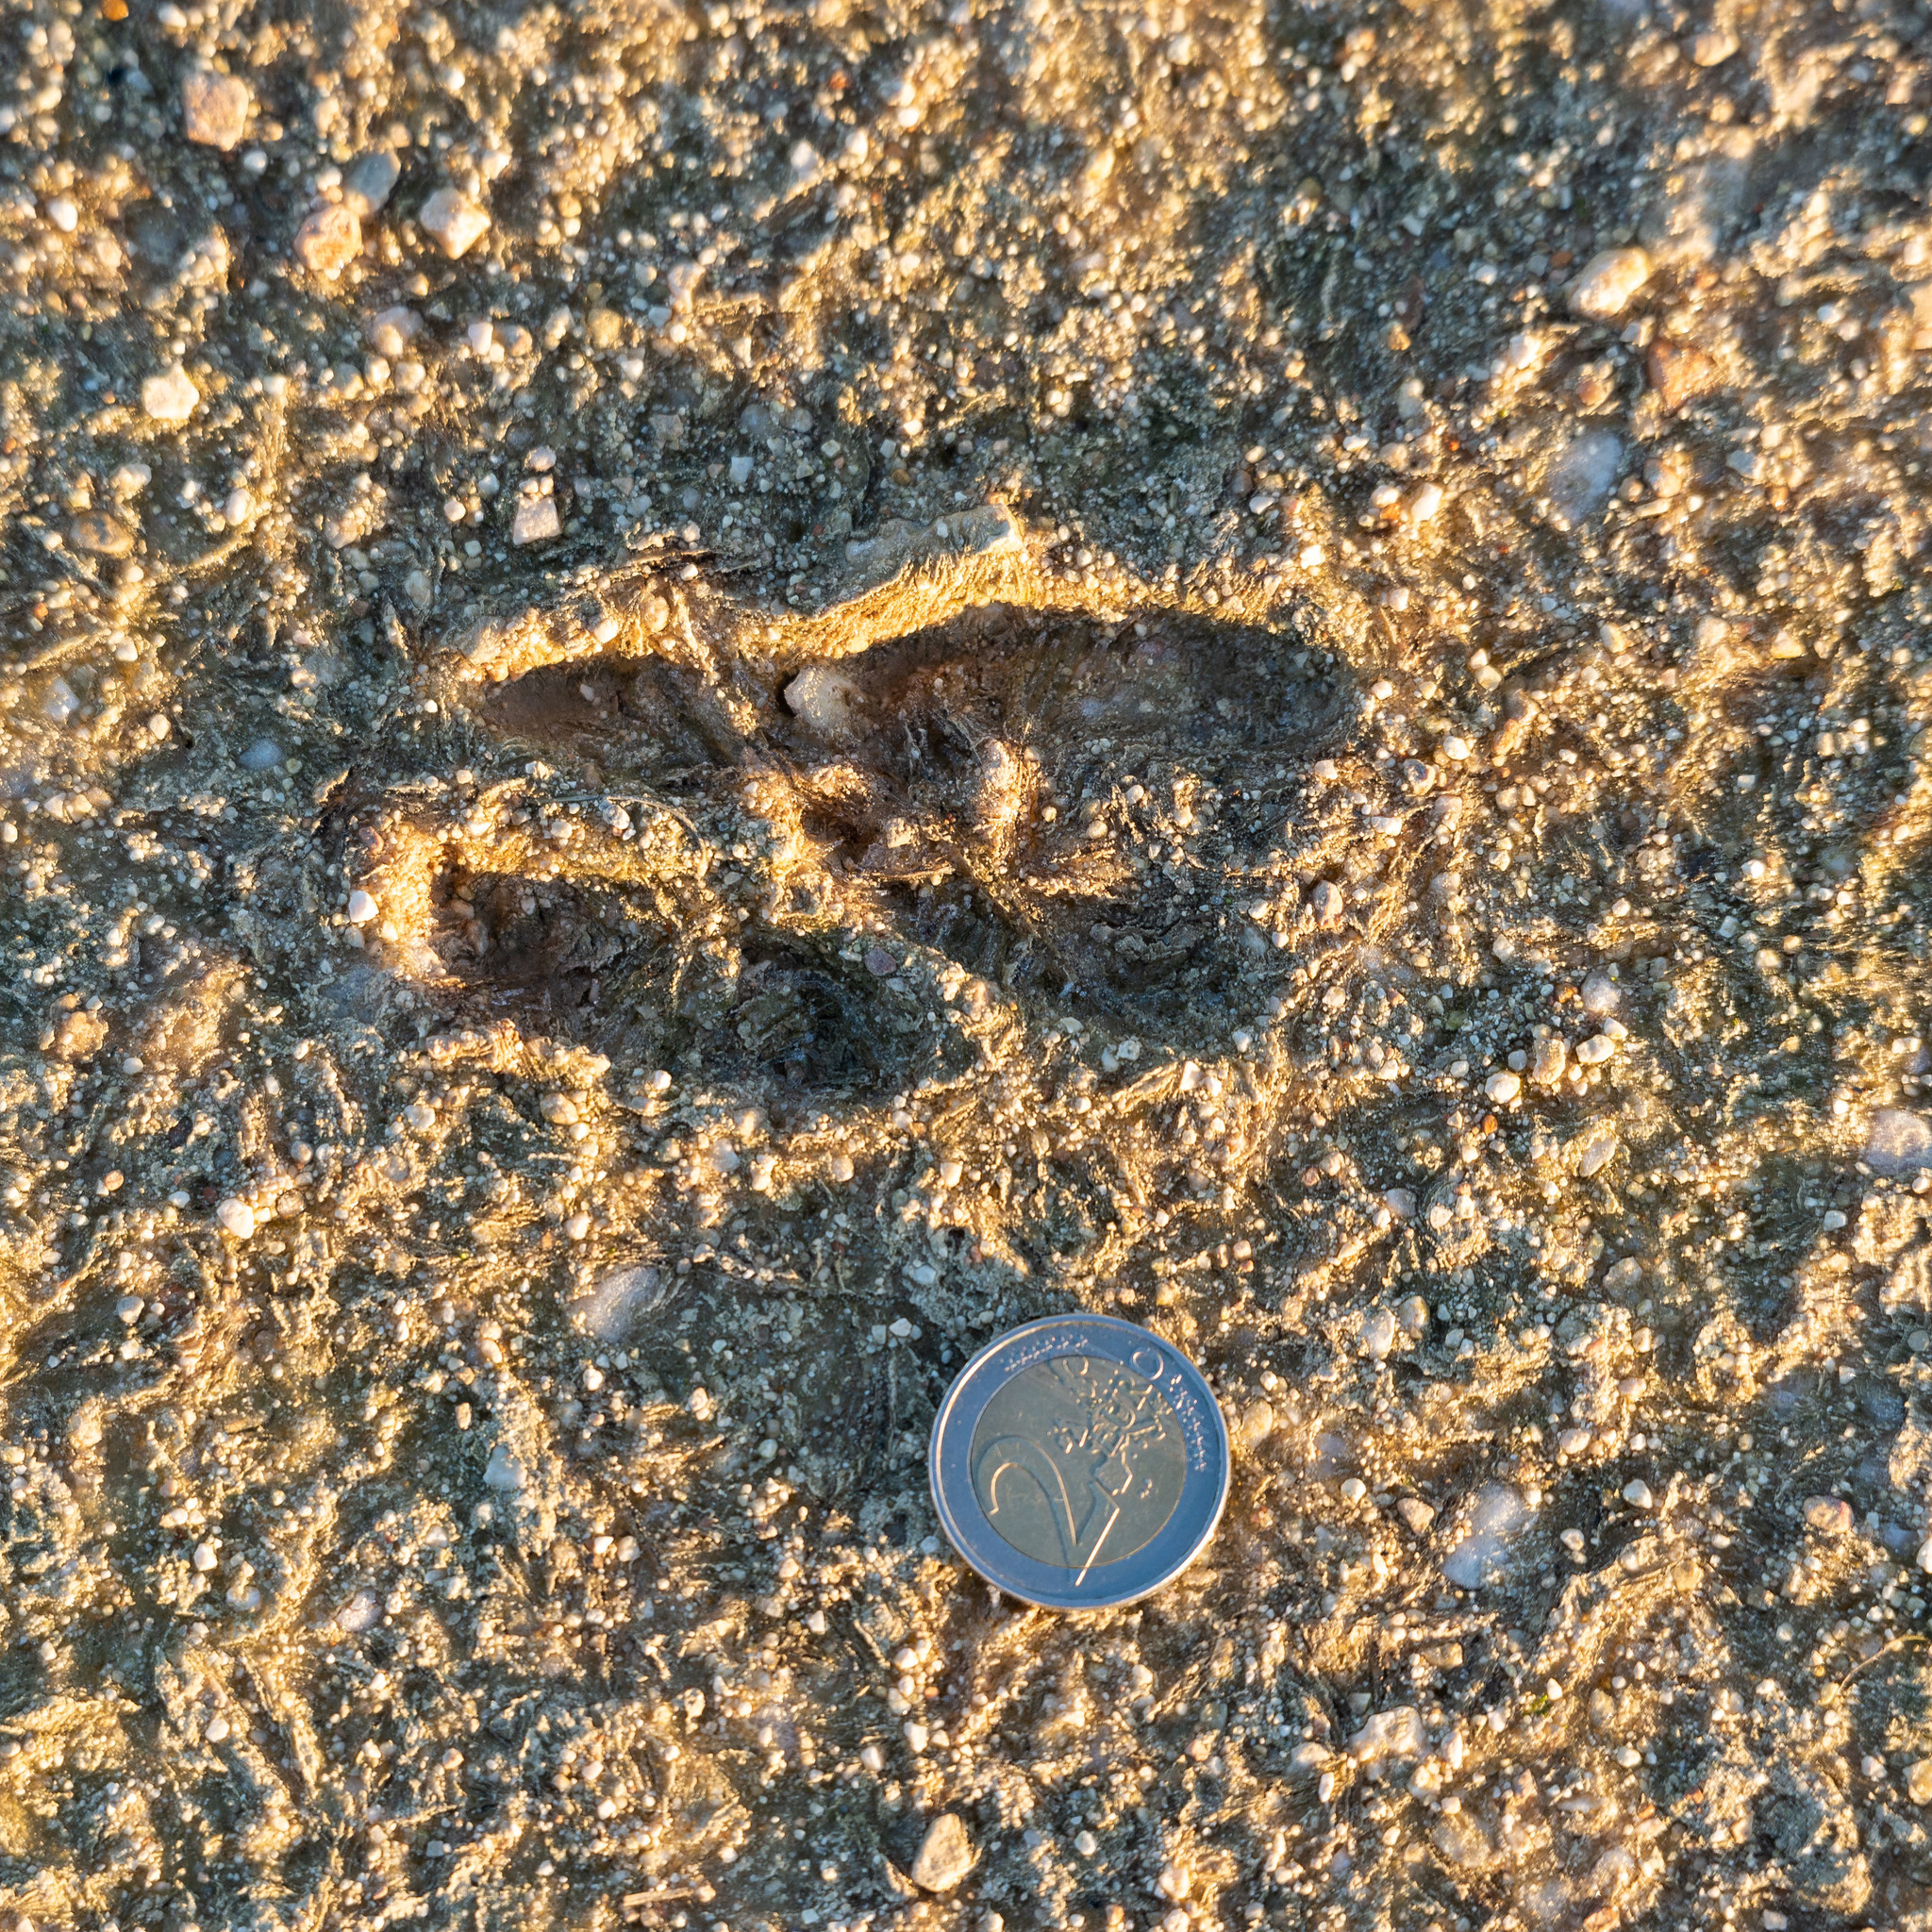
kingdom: Animalia
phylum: Chordata
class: Mammalia
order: Artiodactyla
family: Cervidae
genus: Capreolus
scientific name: Capreolus capreolus
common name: Western roe deer
